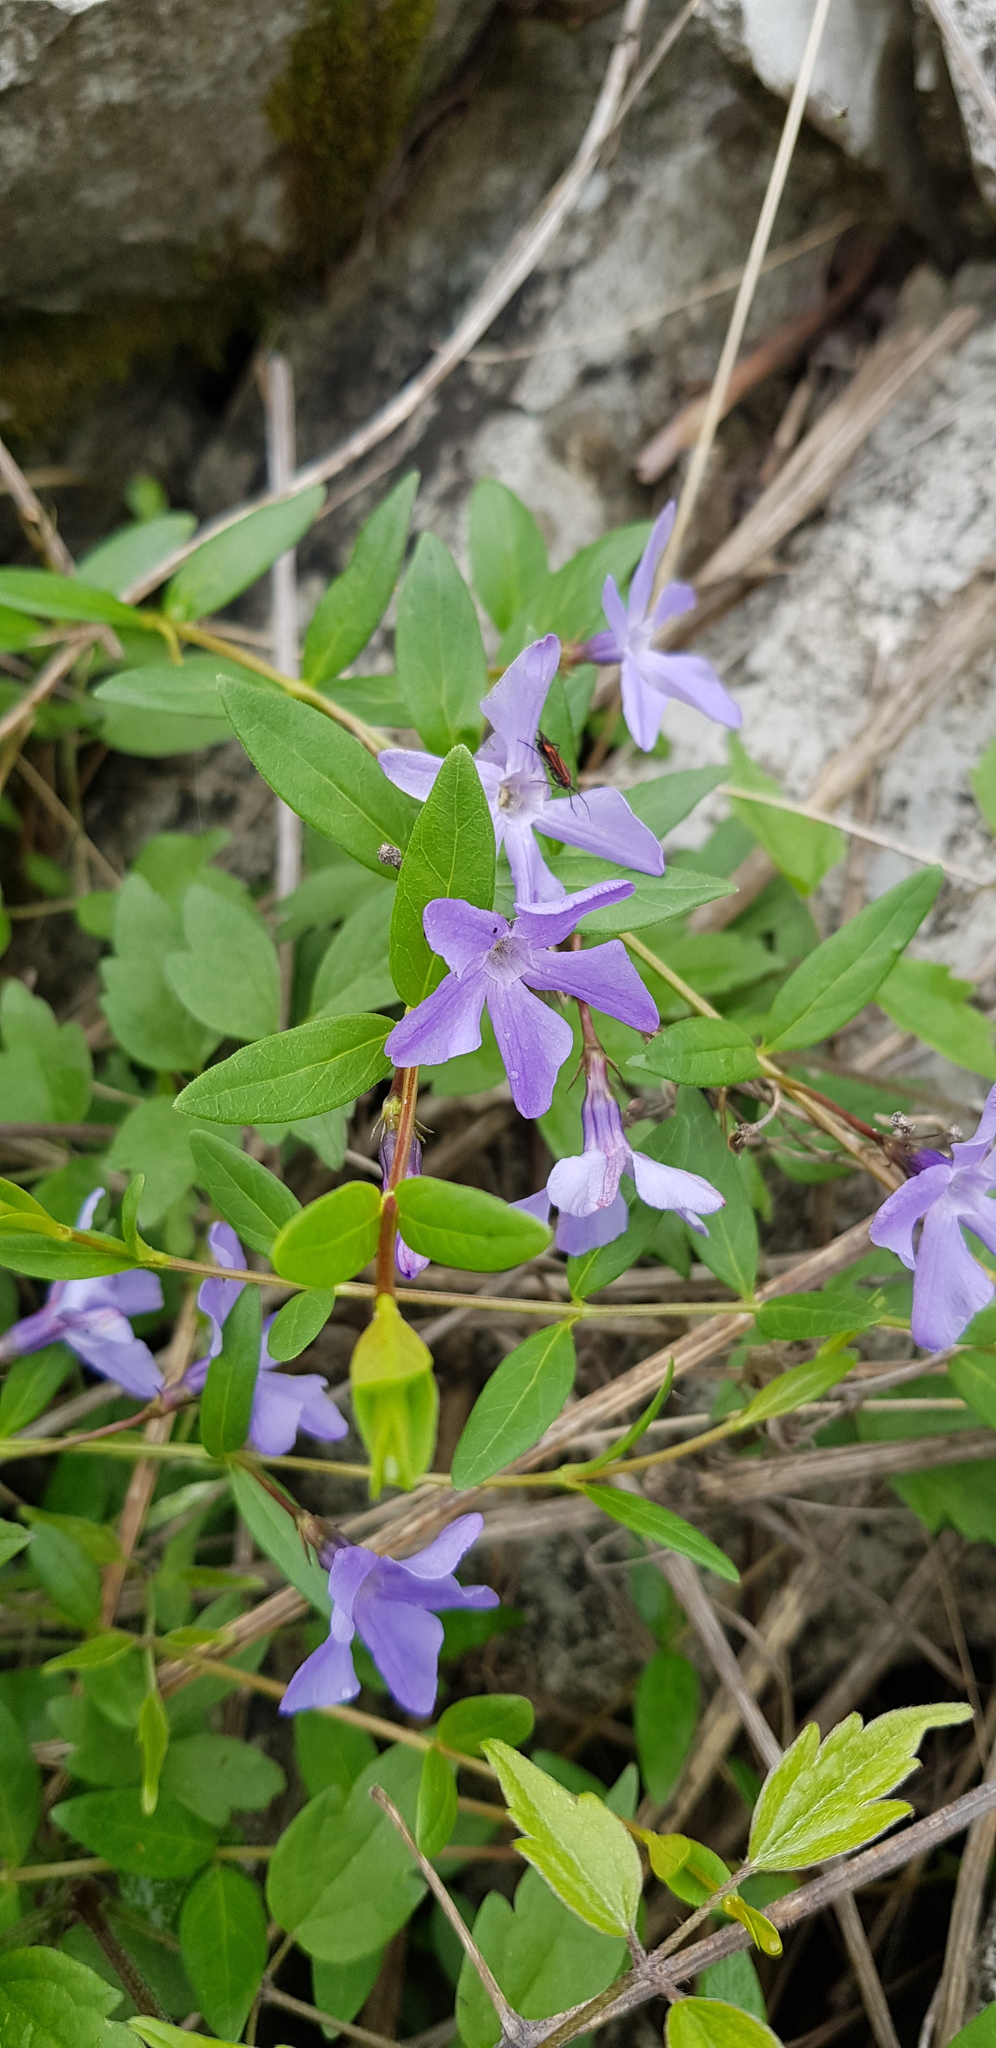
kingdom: Plantae
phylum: Tracheophyta
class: Magnoliopsida
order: Gentianales
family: Apocynaceae
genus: Vinca
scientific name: Vinca herbacea
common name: Herbaceous periwinkle
